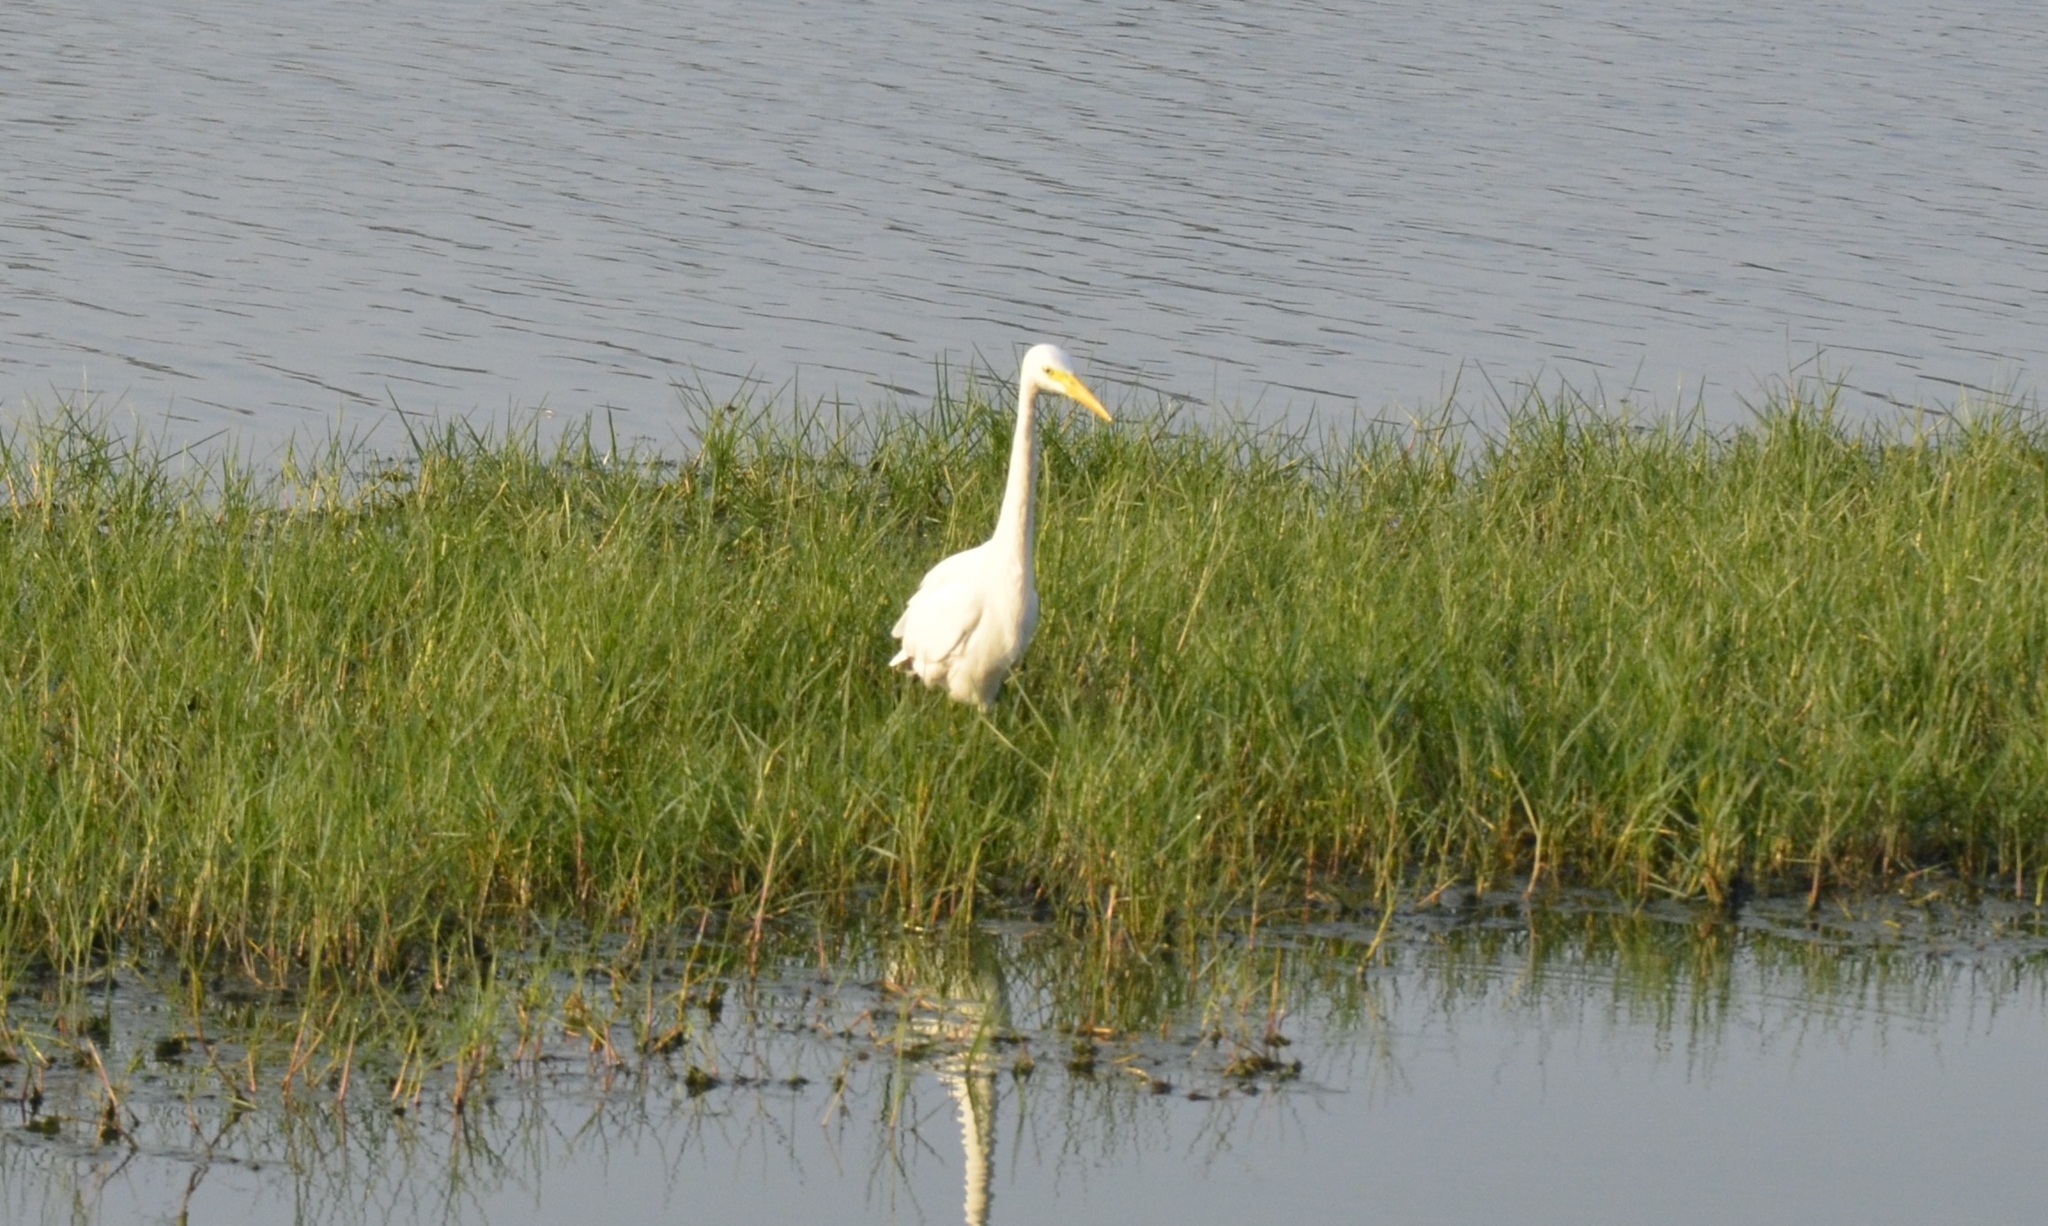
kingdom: Animalia
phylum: Chordata
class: Aves
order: Pelecaniformes
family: Ardeidae
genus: Egretta
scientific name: Egretta intermedia
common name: Intermediate egret
